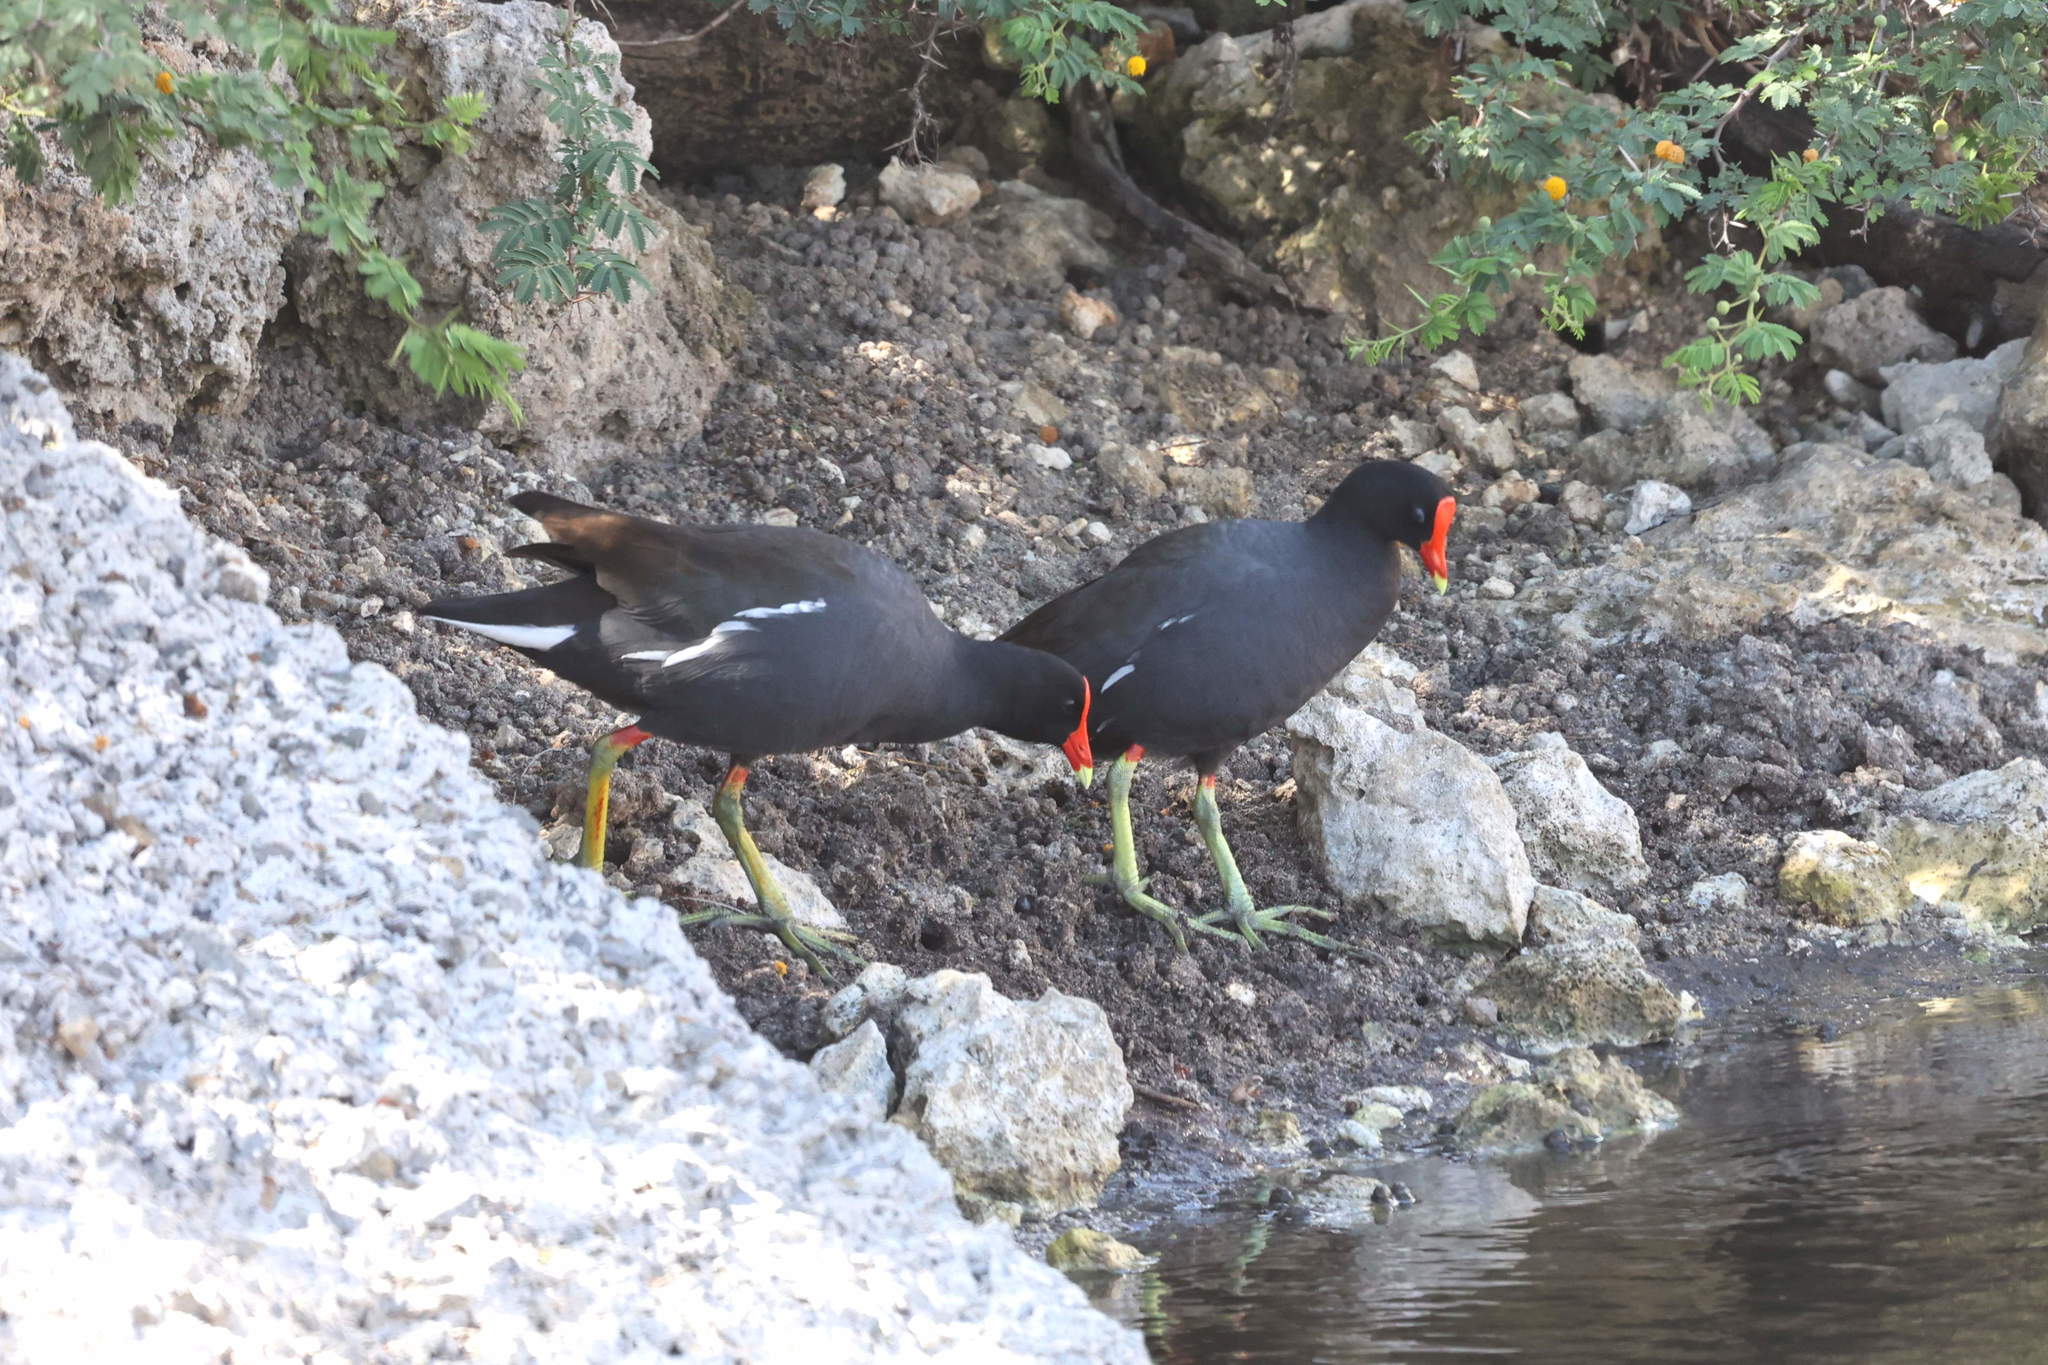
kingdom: Animalia
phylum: Chordata
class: Aves
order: Gruiformes
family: Rallidae
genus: Gallinula
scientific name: Gallinula chloropus
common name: Common moorhen
